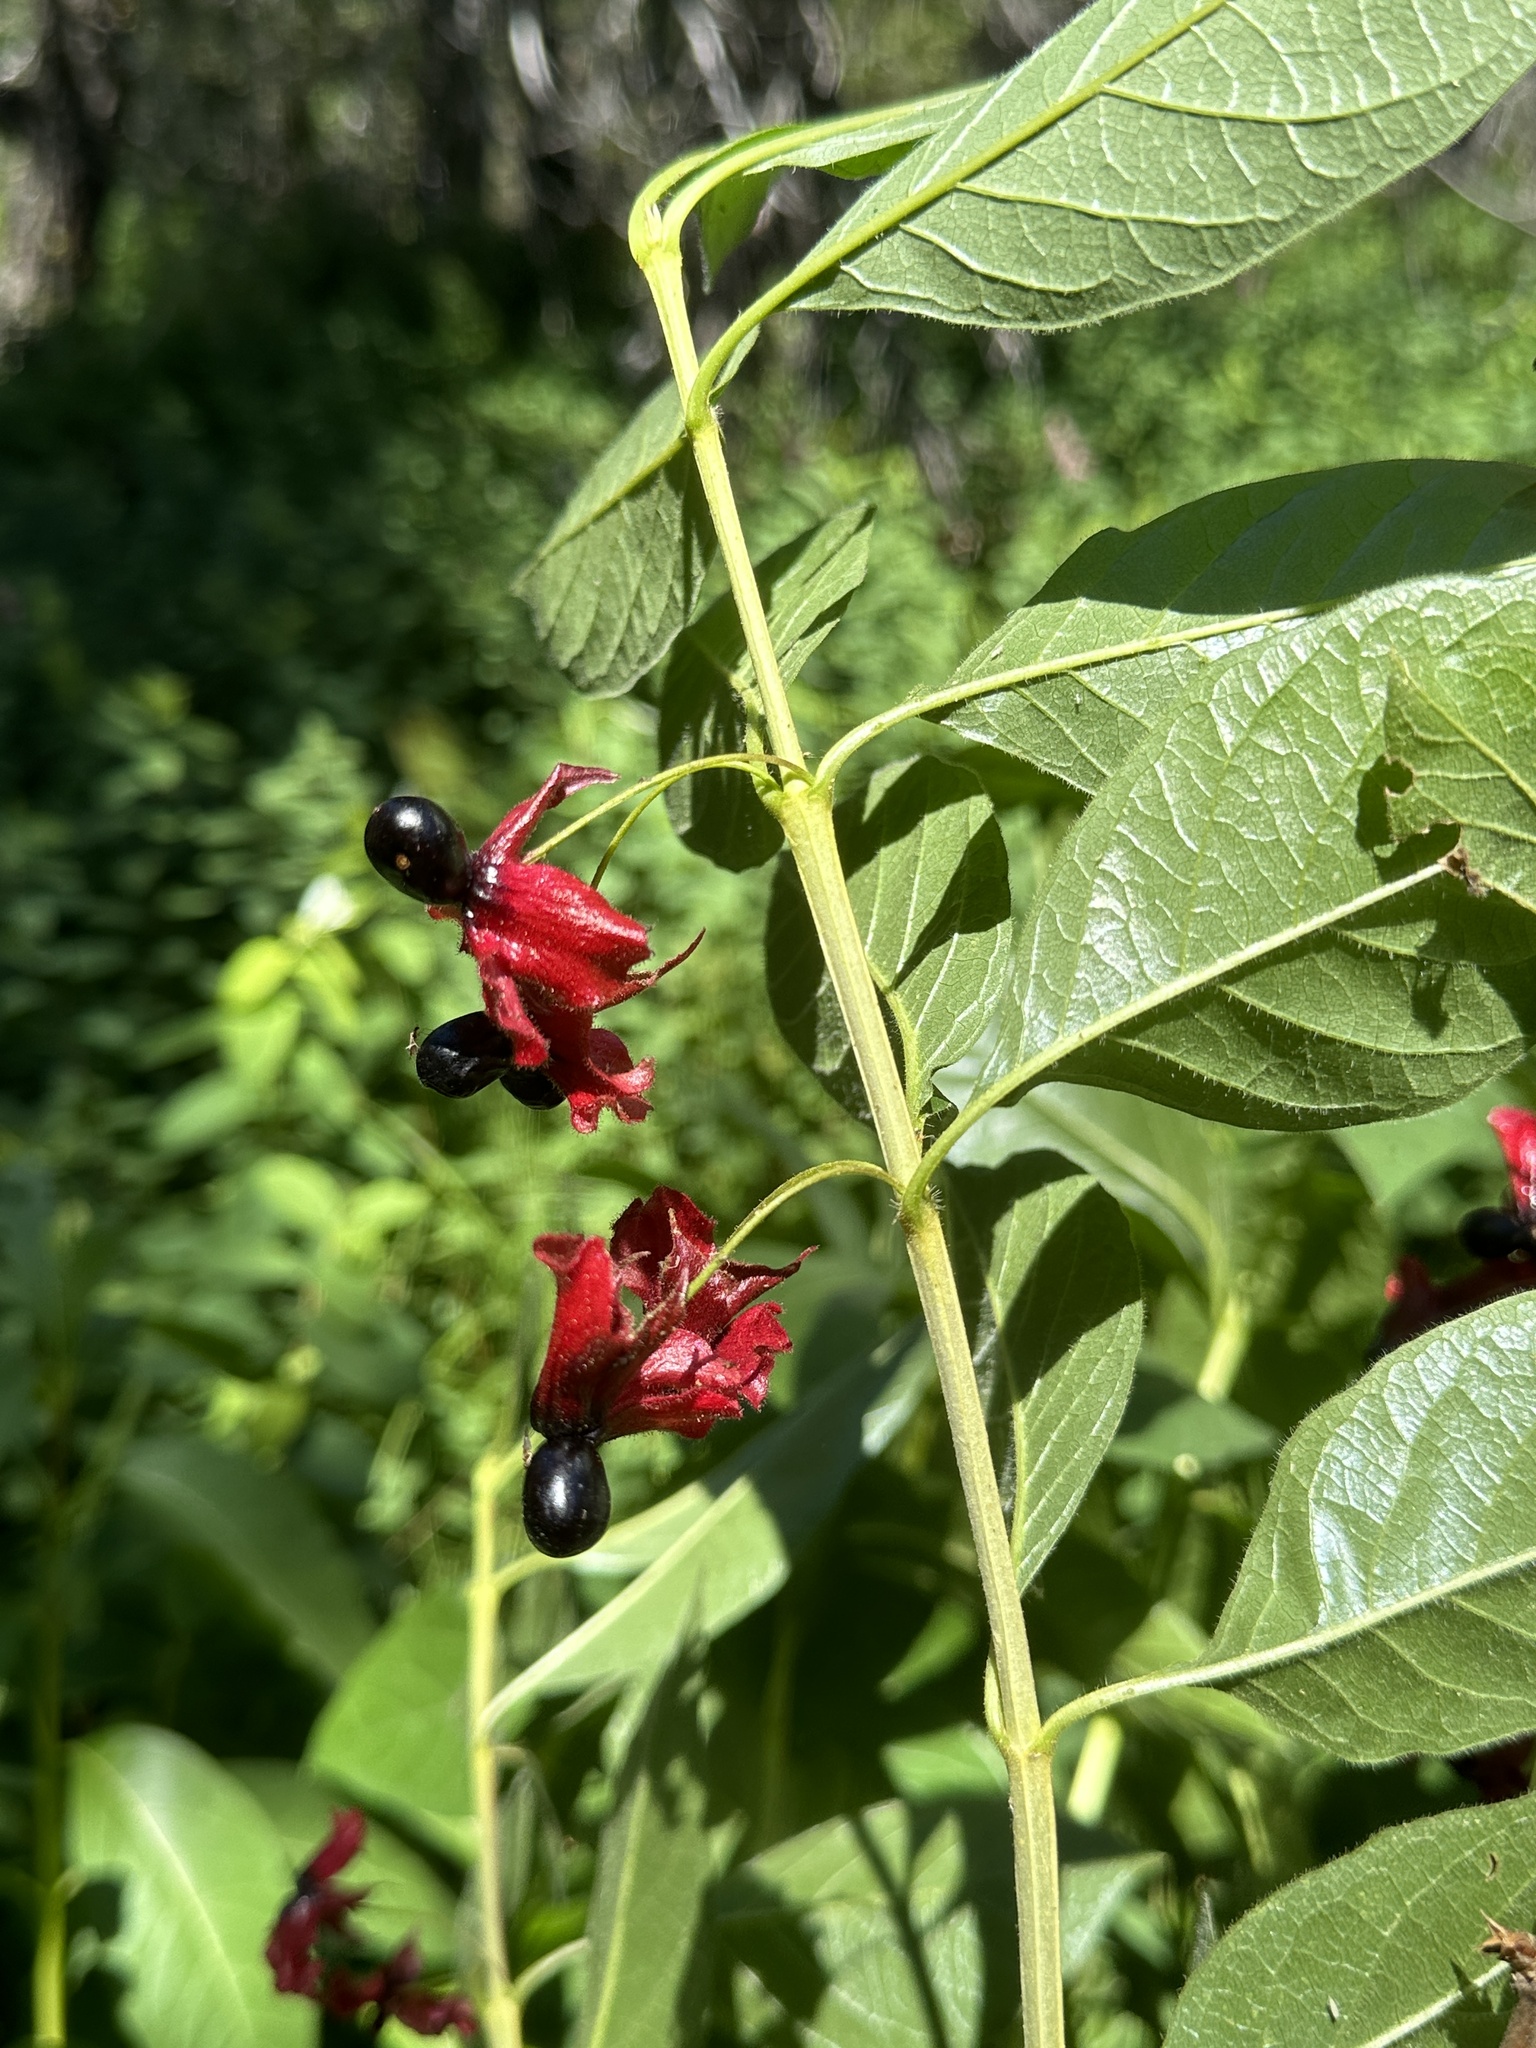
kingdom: Plantae
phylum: Tracheophyta
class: Magnoliopsida
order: Dipsacales
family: Caprifoliaceae
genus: Lonicera
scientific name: Lonicera involucrata
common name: Californian honeysuckle
